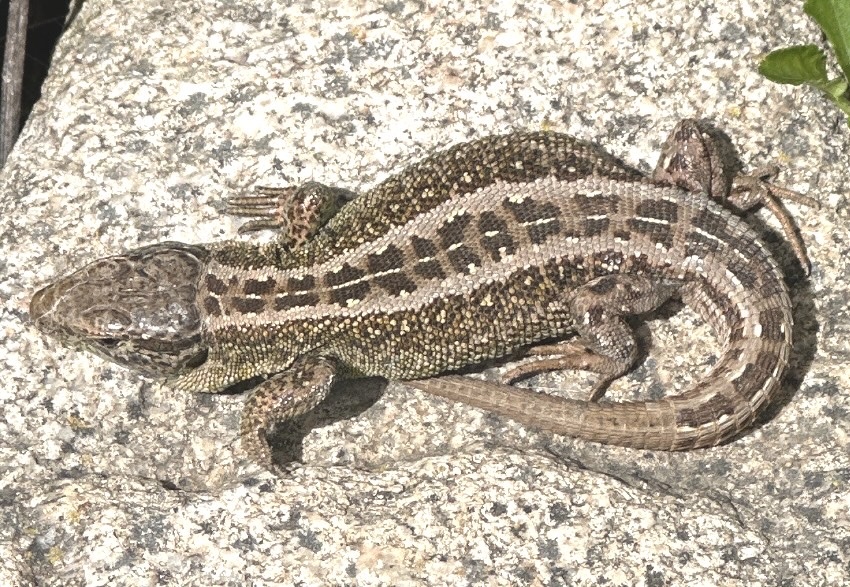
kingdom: Animalia
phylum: Chordata
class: Squamata
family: Lacertidae
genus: Lacerta
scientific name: Lacerta agilis
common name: Sand lizard
